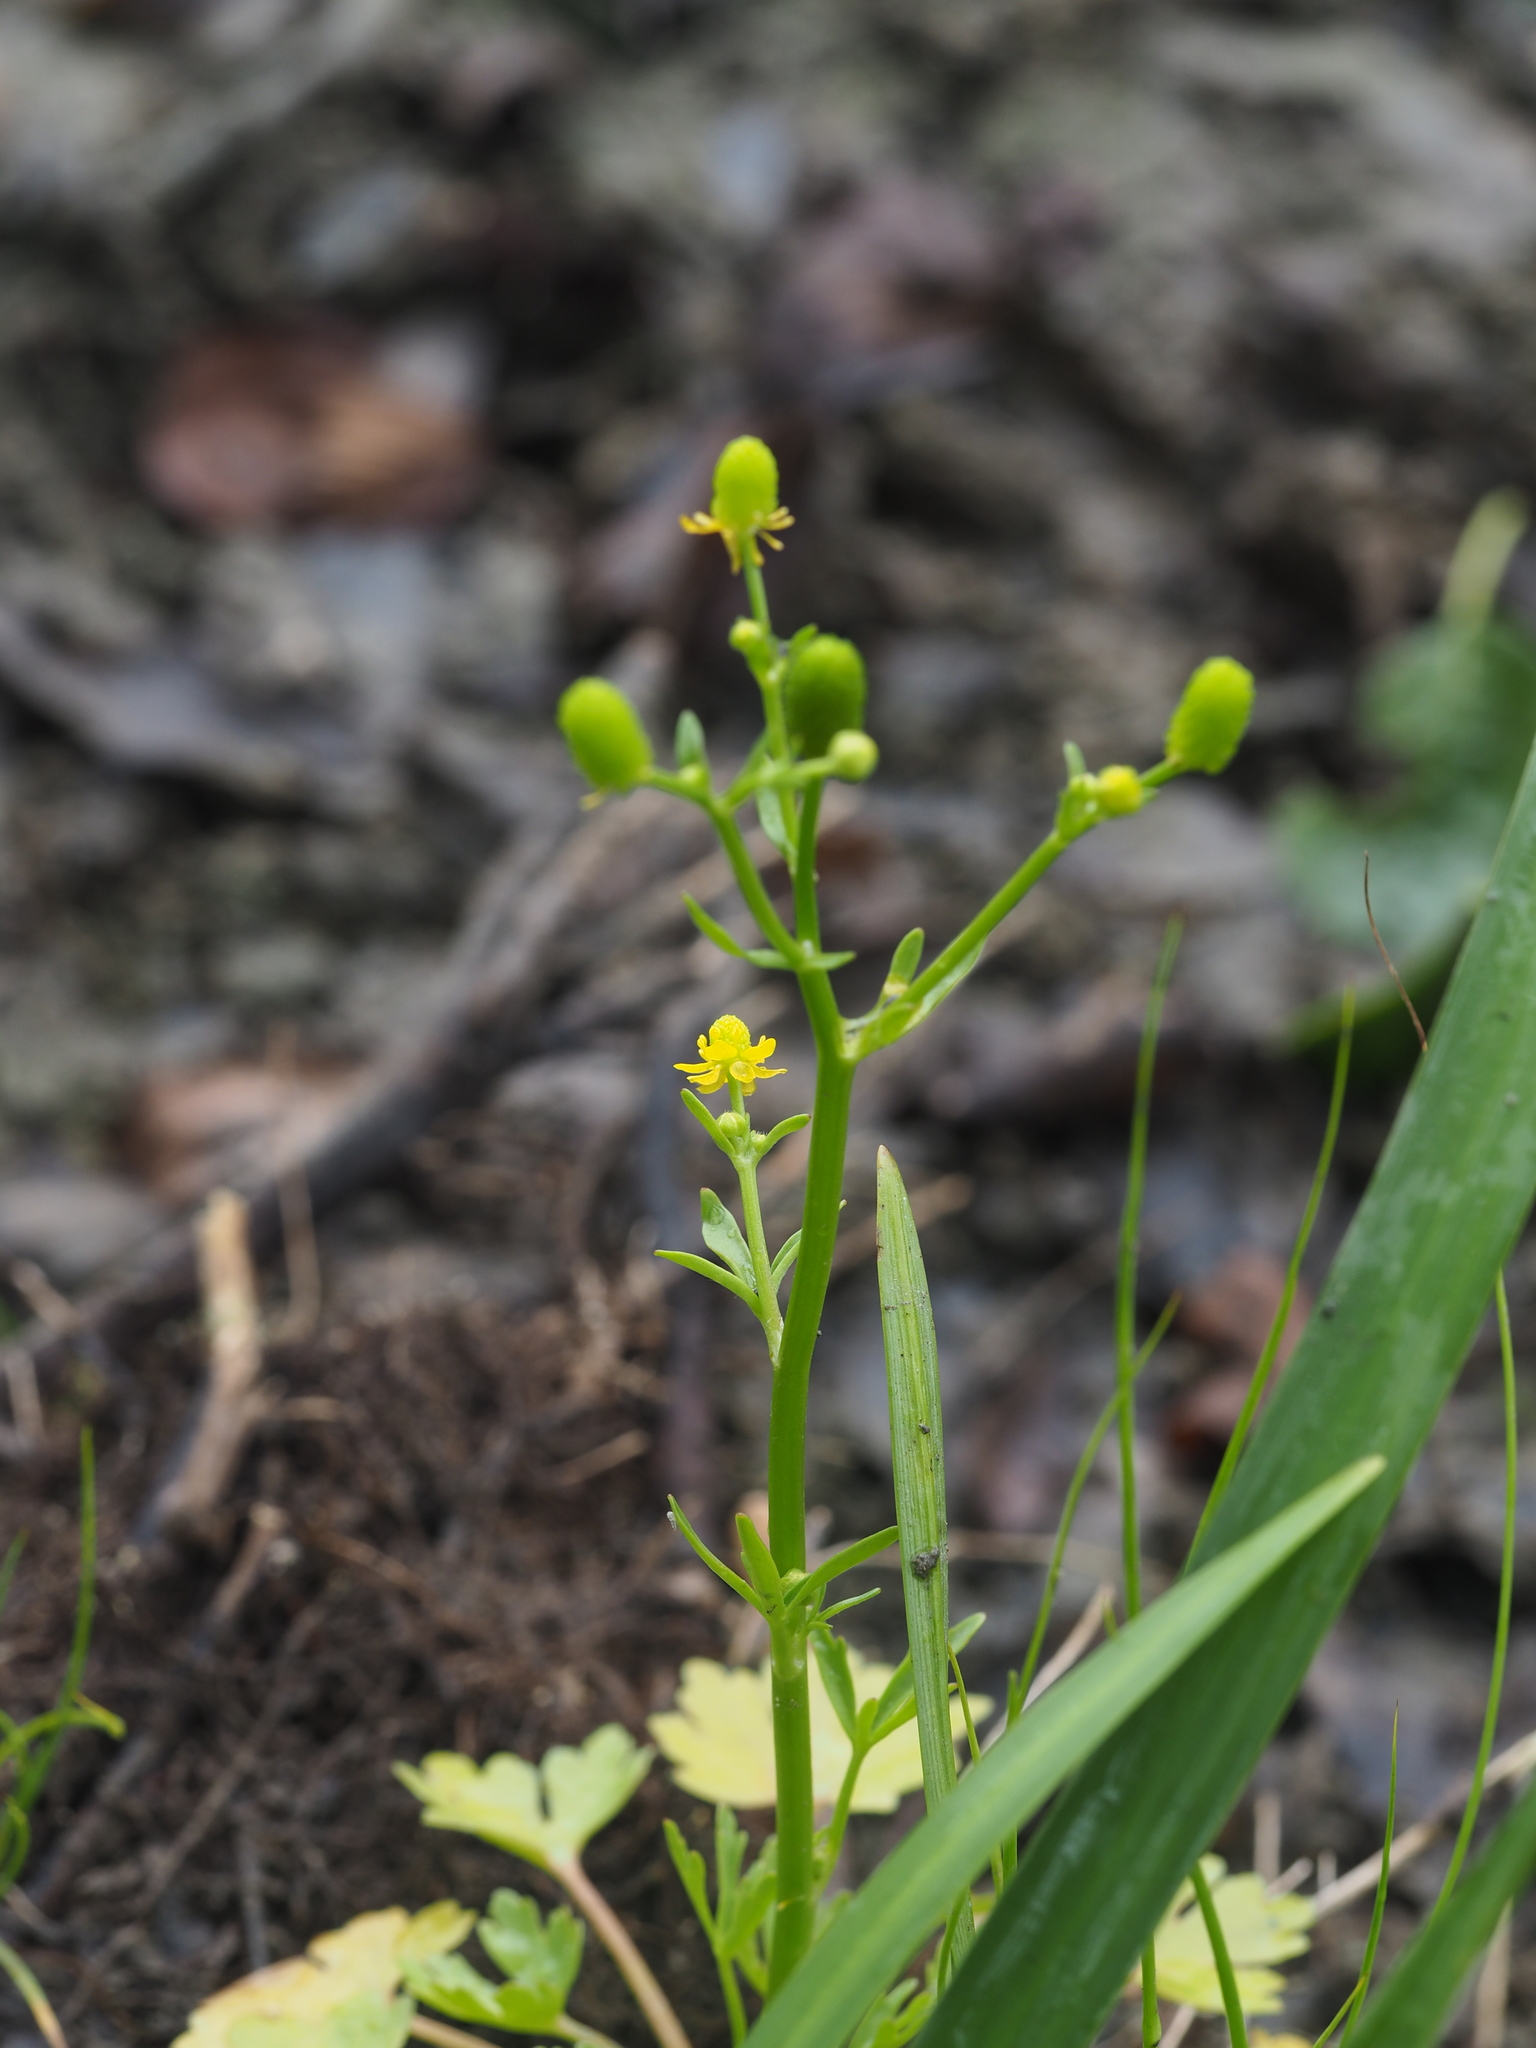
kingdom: Plantae
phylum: Tracheophyta
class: Magnoliopsida
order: Ranunculales
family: Ranunculaceae
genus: Ranunculus
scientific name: Ranunculus sceleratus
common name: Celery-leaved buttercup
